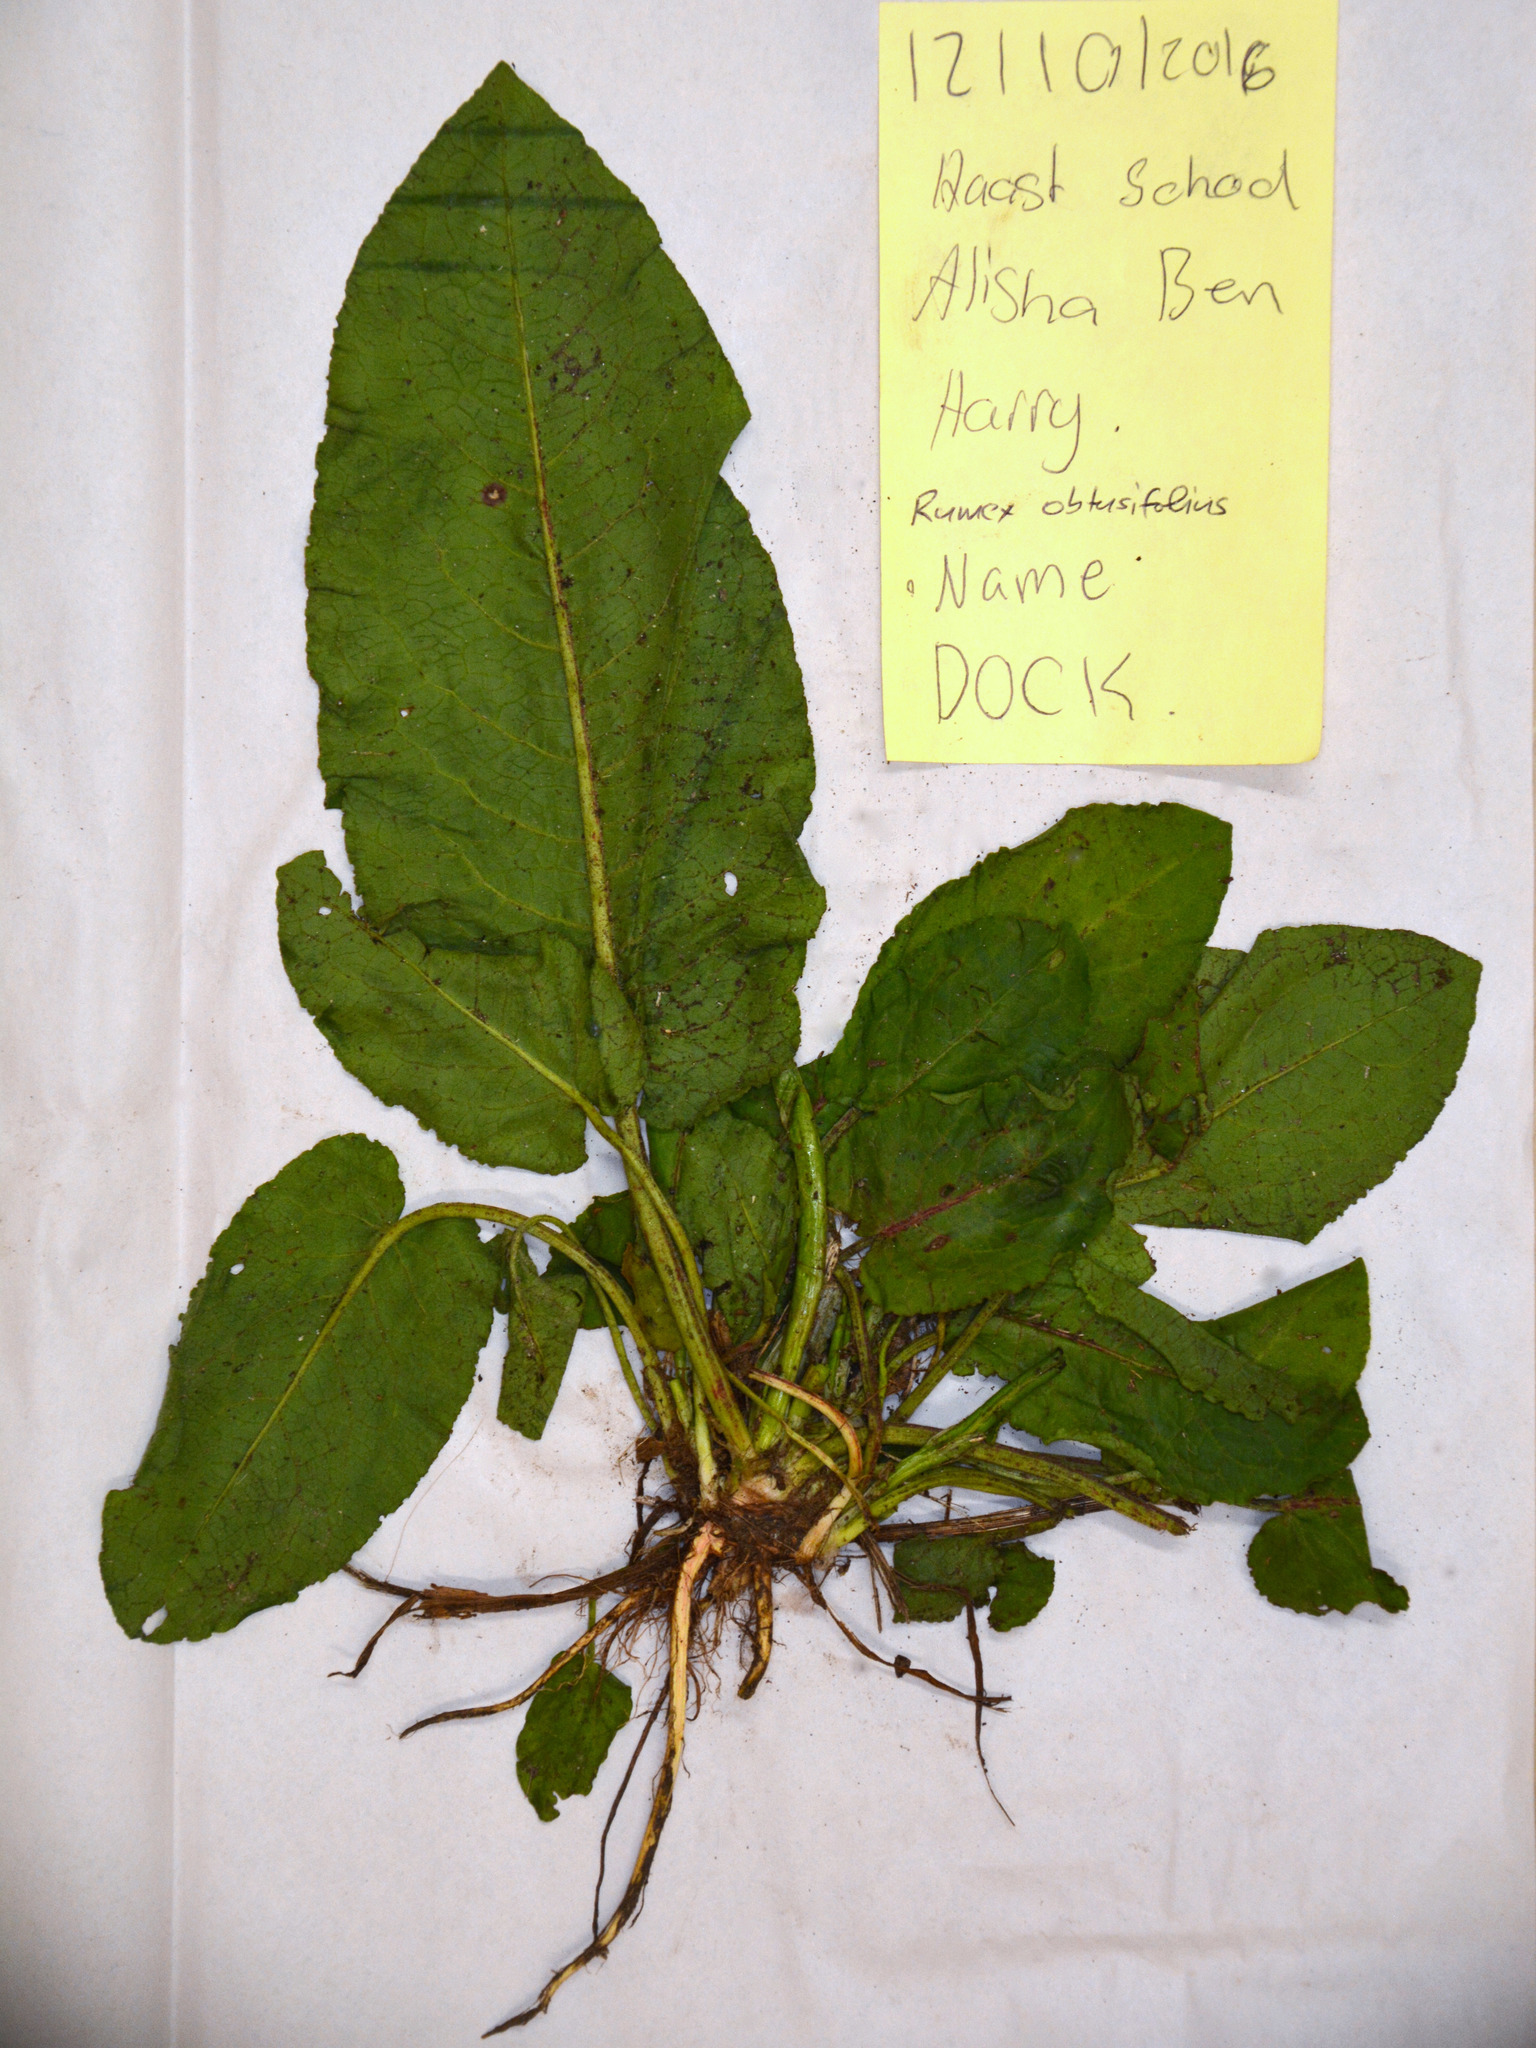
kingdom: Plantae
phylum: Tracheophyta
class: Magnoliopsida
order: Caryophyllales
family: Polygonaceae
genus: Rumex
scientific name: Rumex obtusifolius
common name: Bitter dock
